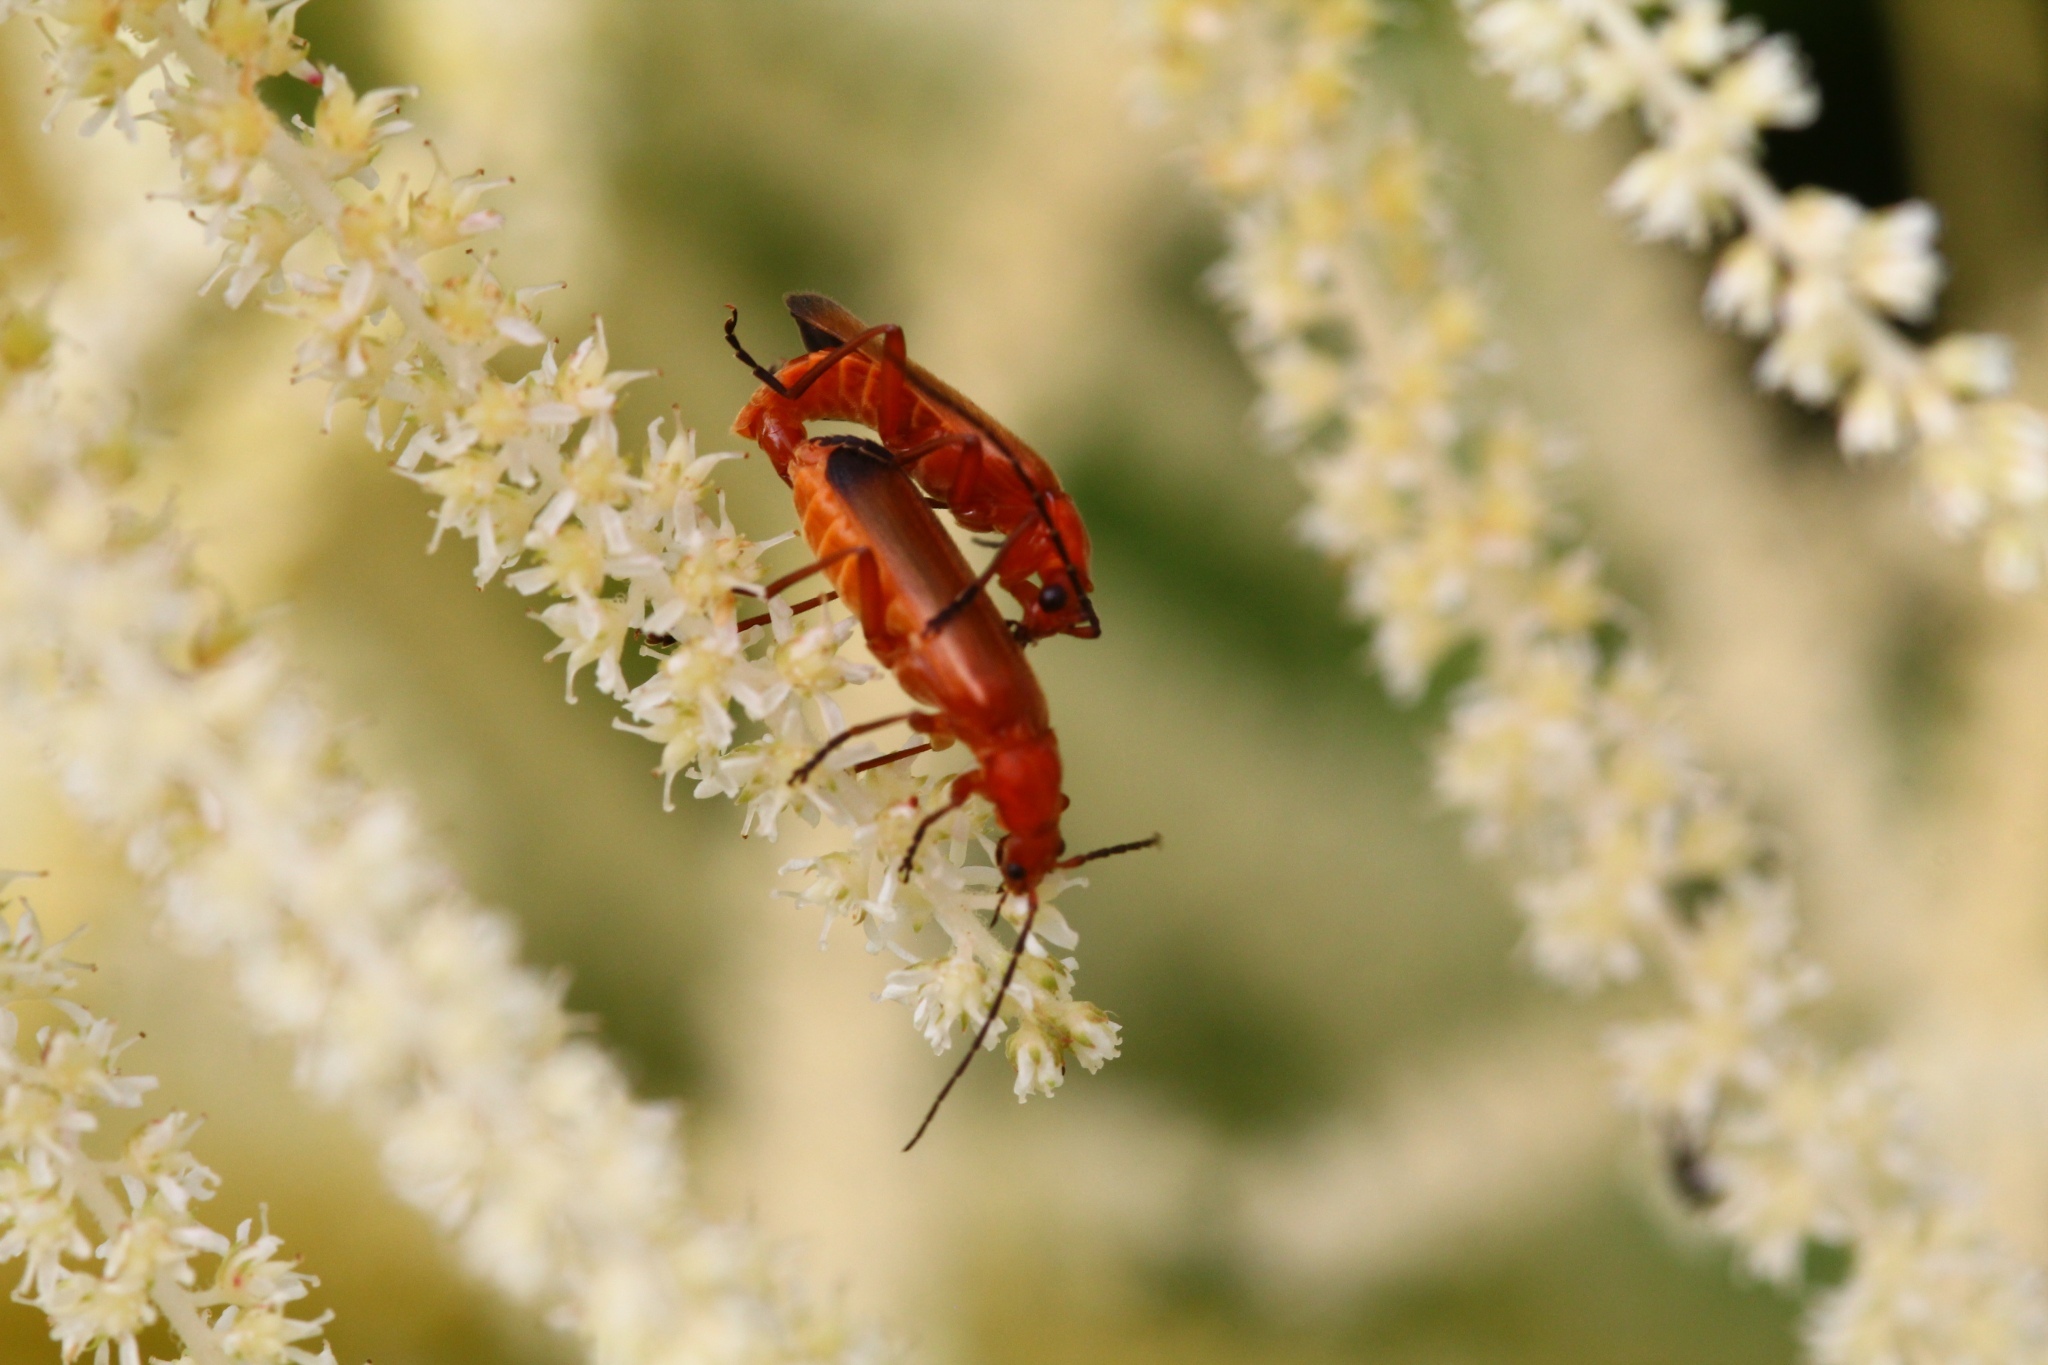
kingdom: Animalia
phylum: Arthropoda
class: Insecta
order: Coleoptera
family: Cantharidae
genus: Rhagonycha
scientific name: Rhagonycha fulva
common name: Common red soldier beetle
